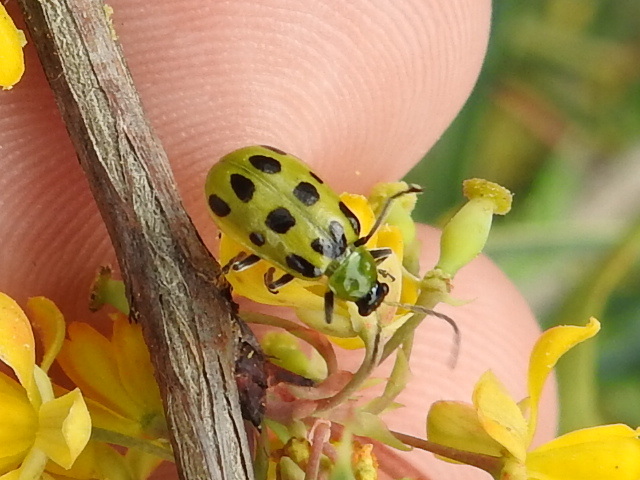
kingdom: Animalia
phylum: Arthropoda
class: Insecta
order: Coleoptera
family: Chrysomelidae
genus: Diabrotica
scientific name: Diabrotica undecimpunctata
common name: Spotted cucumber beetle
